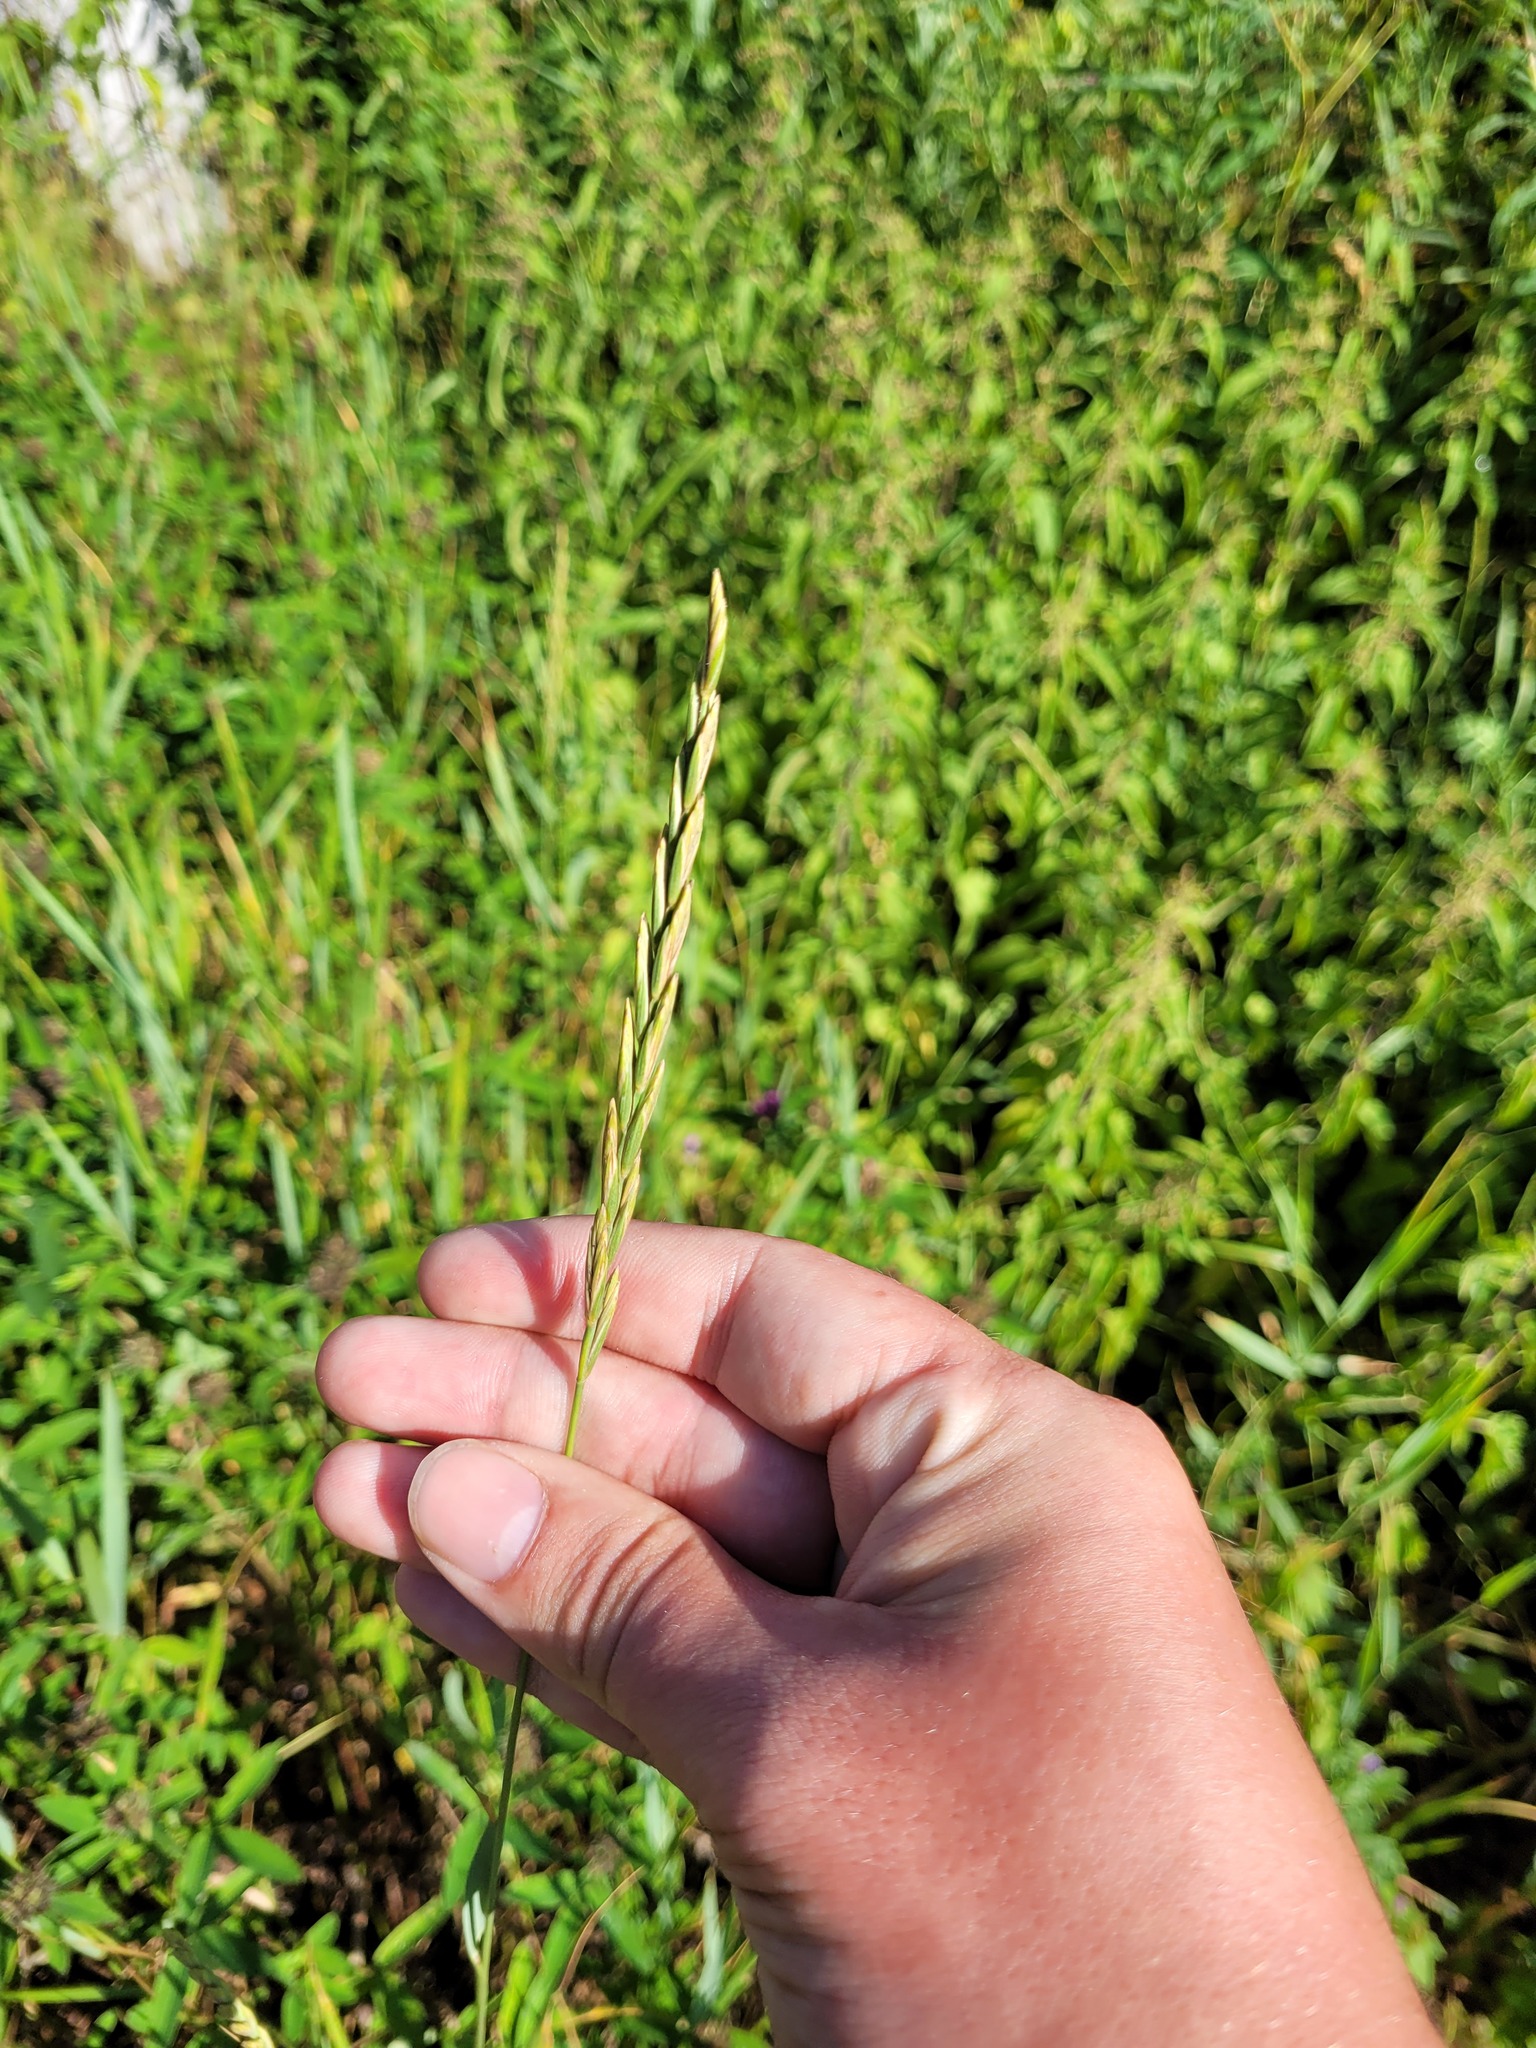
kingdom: Plantae
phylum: Tracheophyta
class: Liliopsida
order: Poales
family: Poaceae
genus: Elymus
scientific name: Elymus repens
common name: Quackgrass
